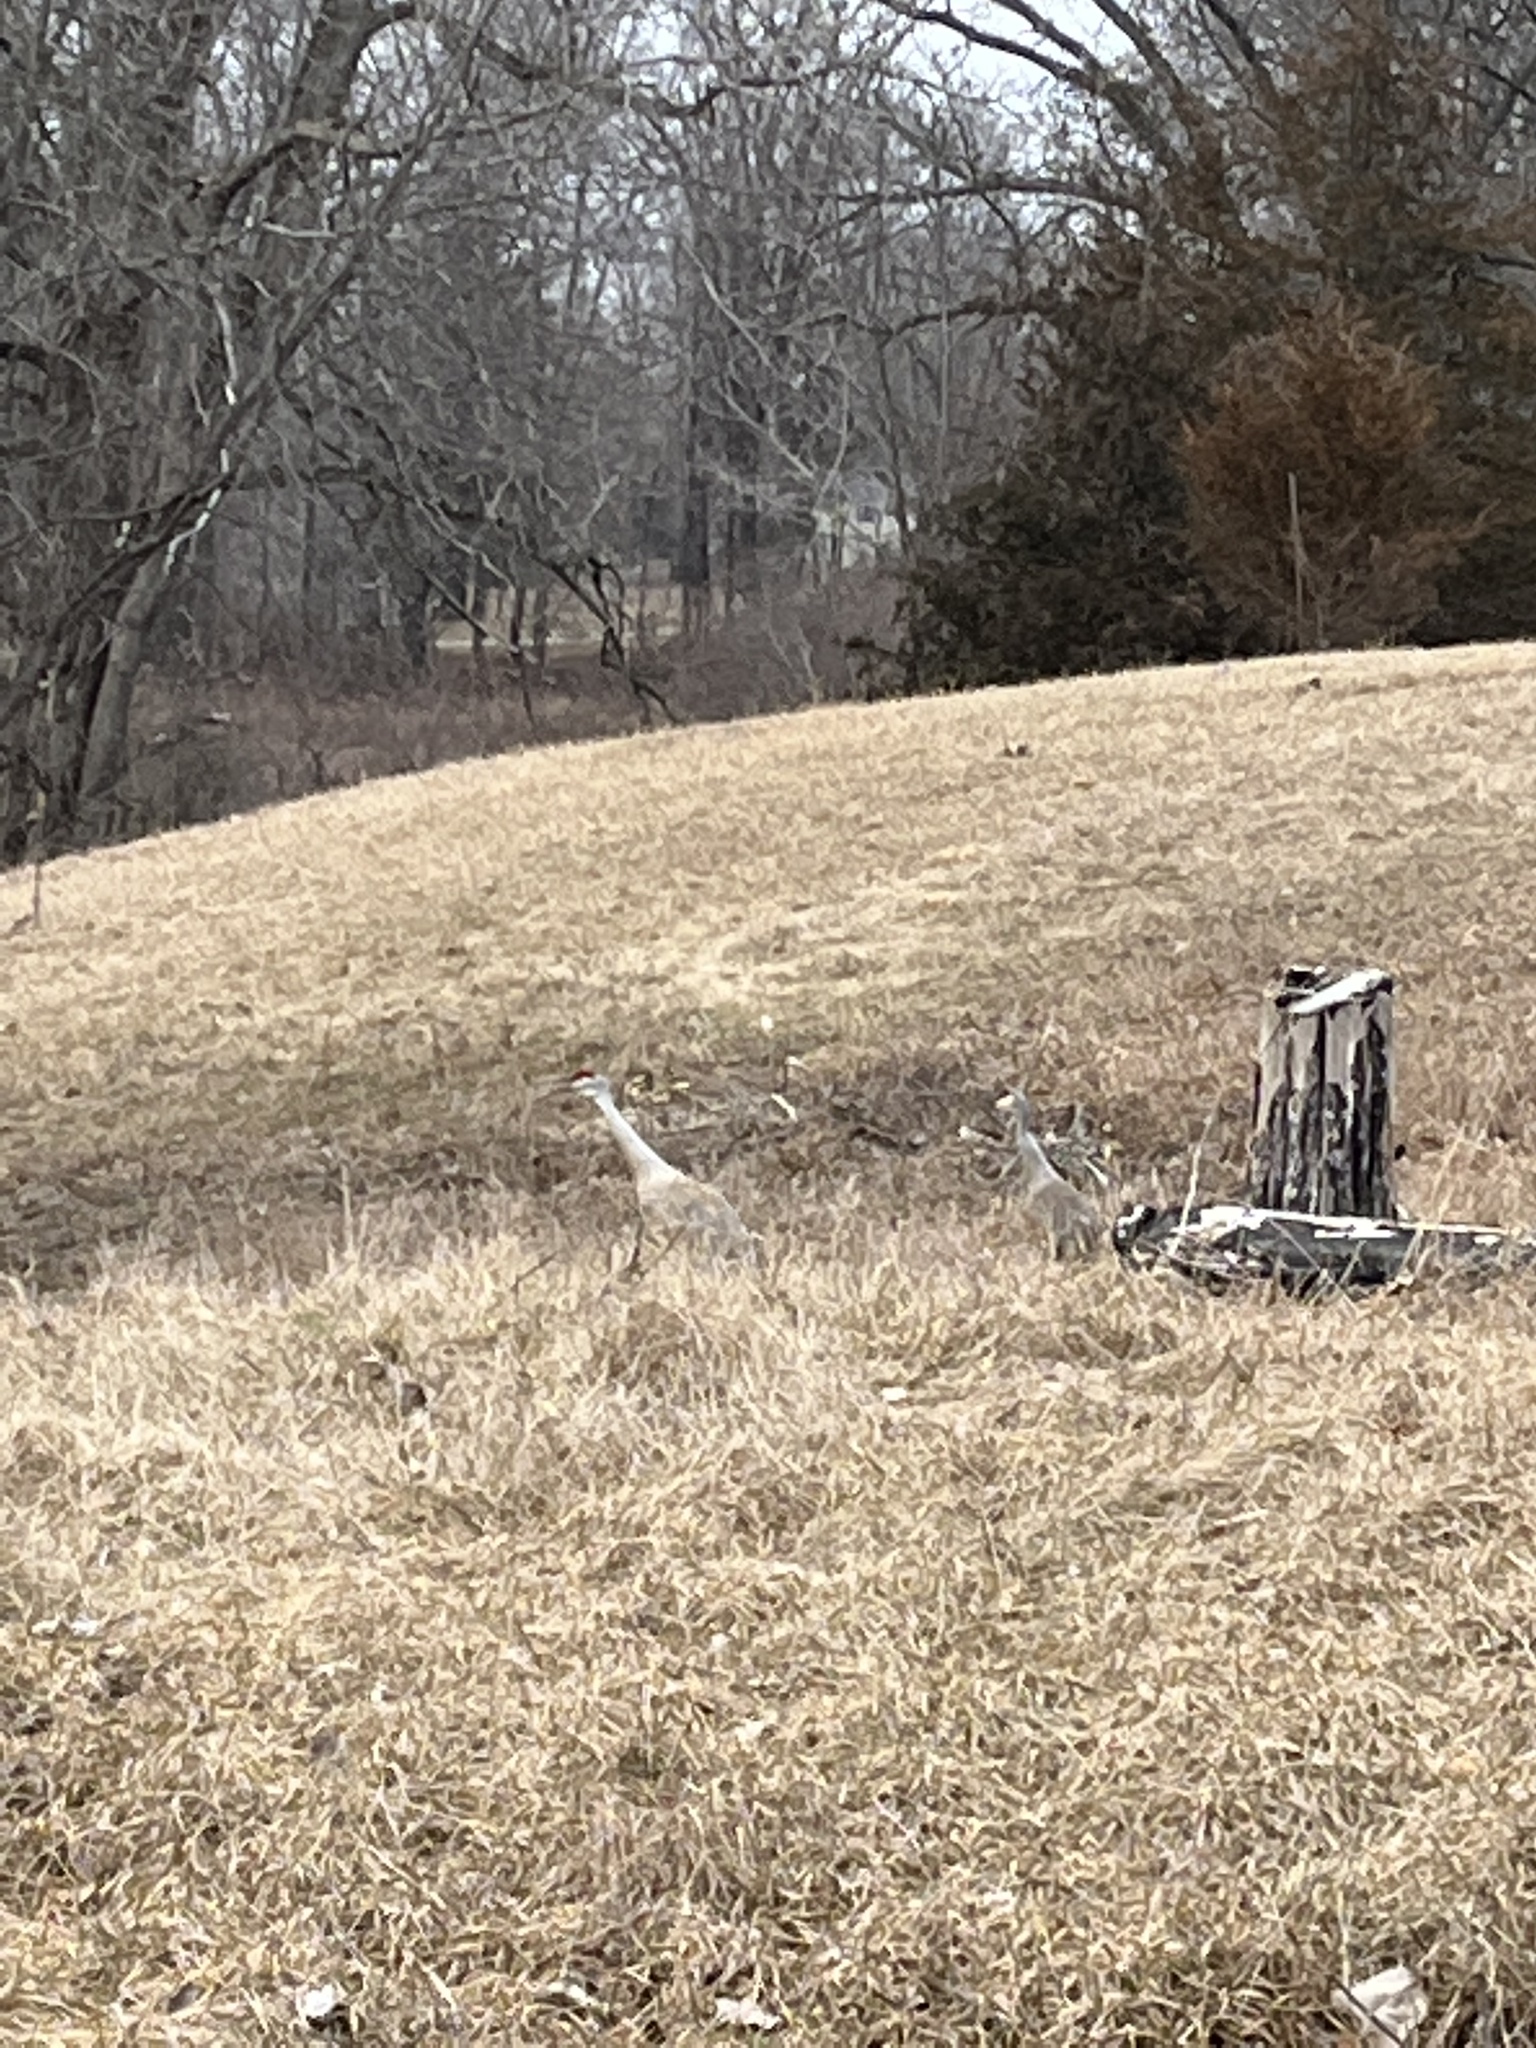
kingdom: Animalia
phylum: Chordata
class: Aves
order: Gruiformes
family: Gruidae
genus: Grus
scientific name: Grus canadensis
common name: Sandhill crane
